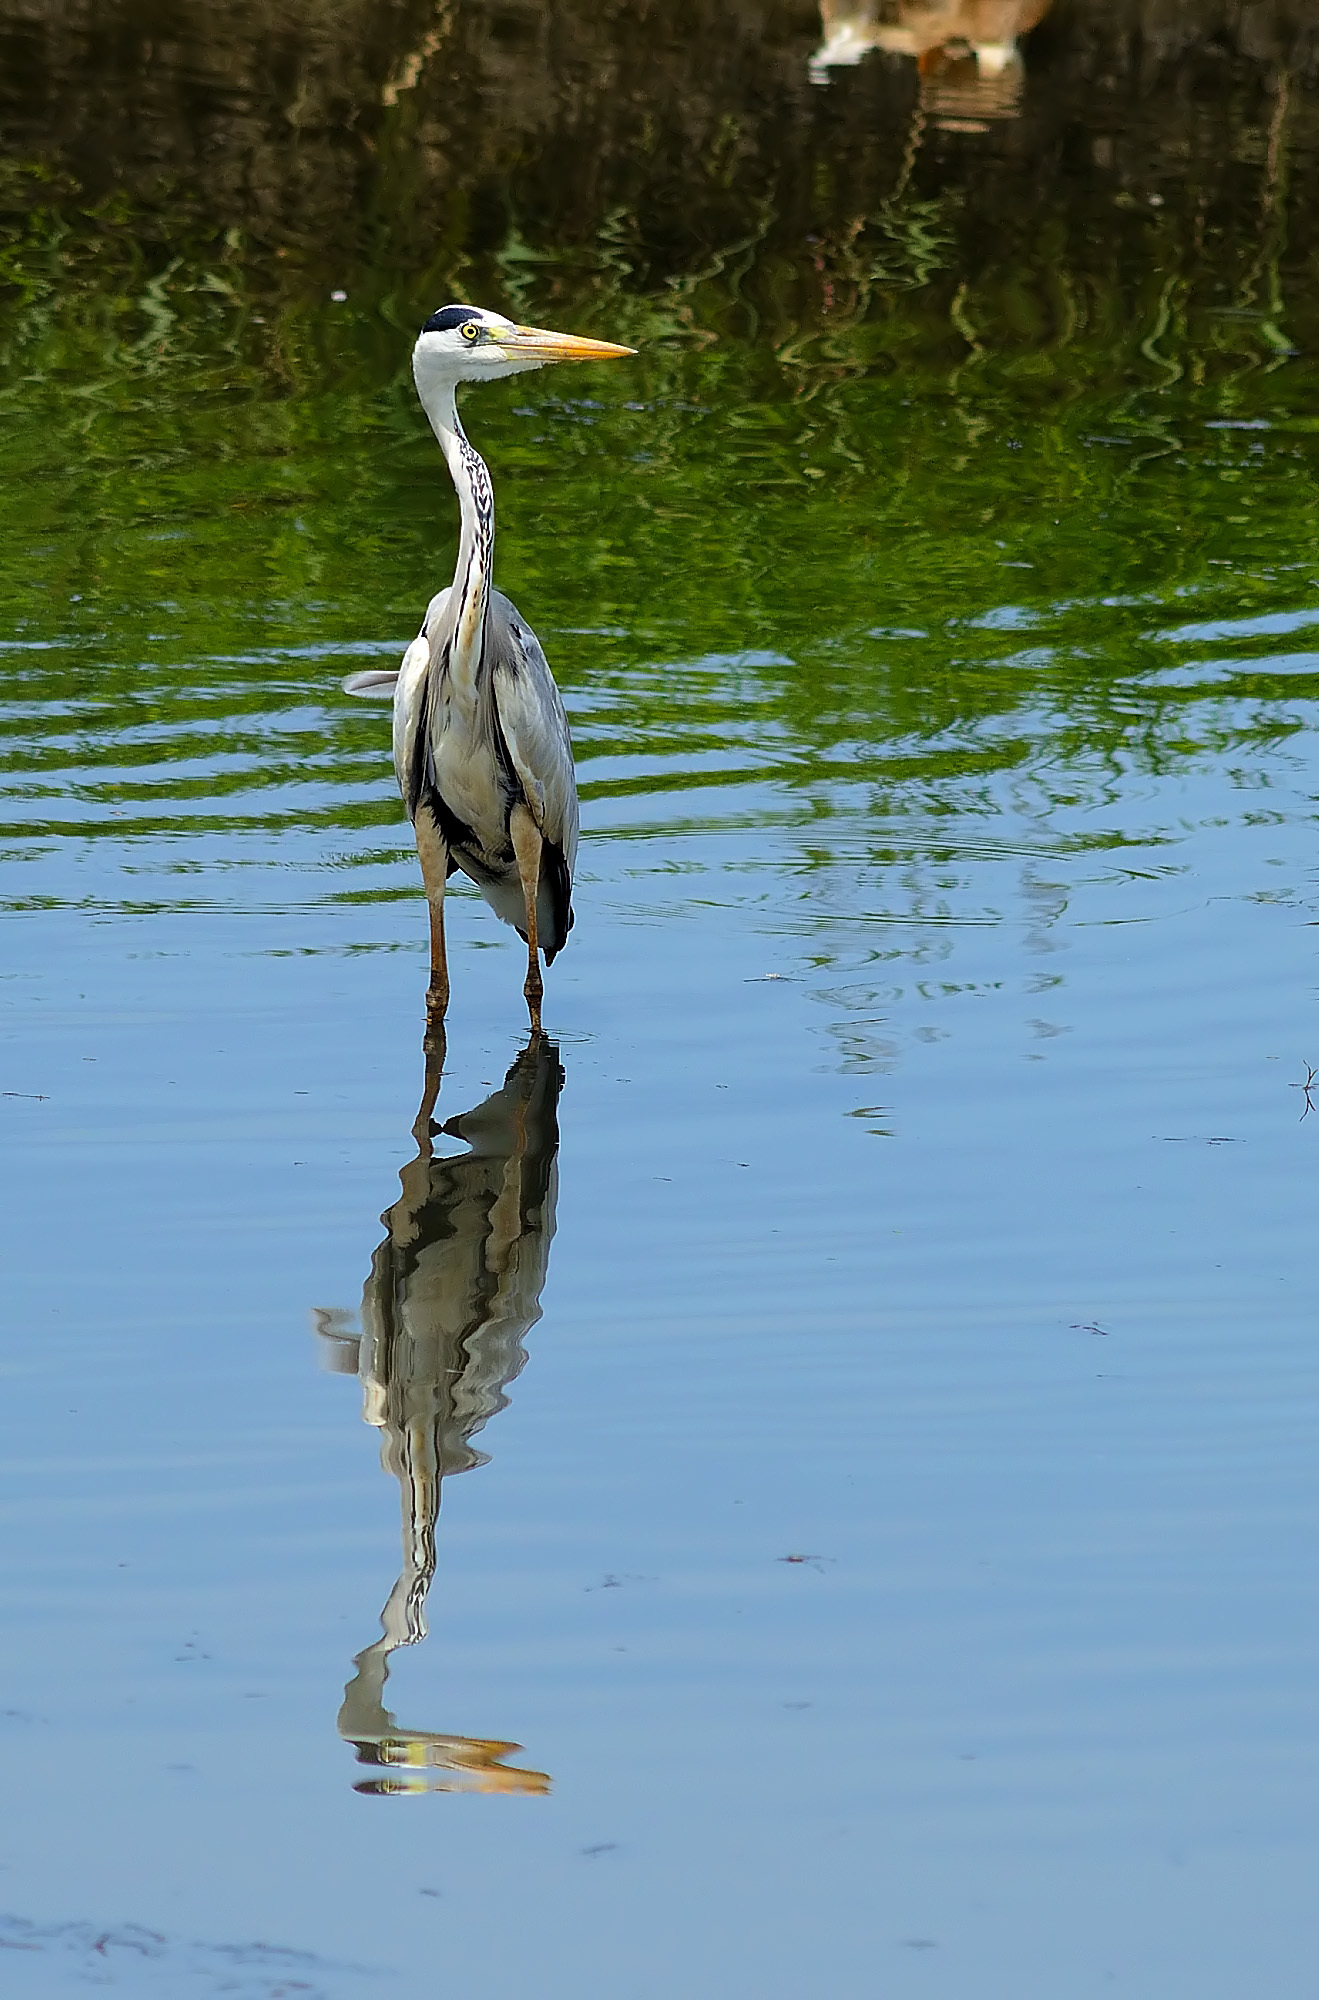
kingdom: Animalia
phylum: Chordata
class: Aves
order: Pelecaniformes
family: Ardeidae
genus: Ardea
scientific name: Ardea cinerea
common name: Grey heron
